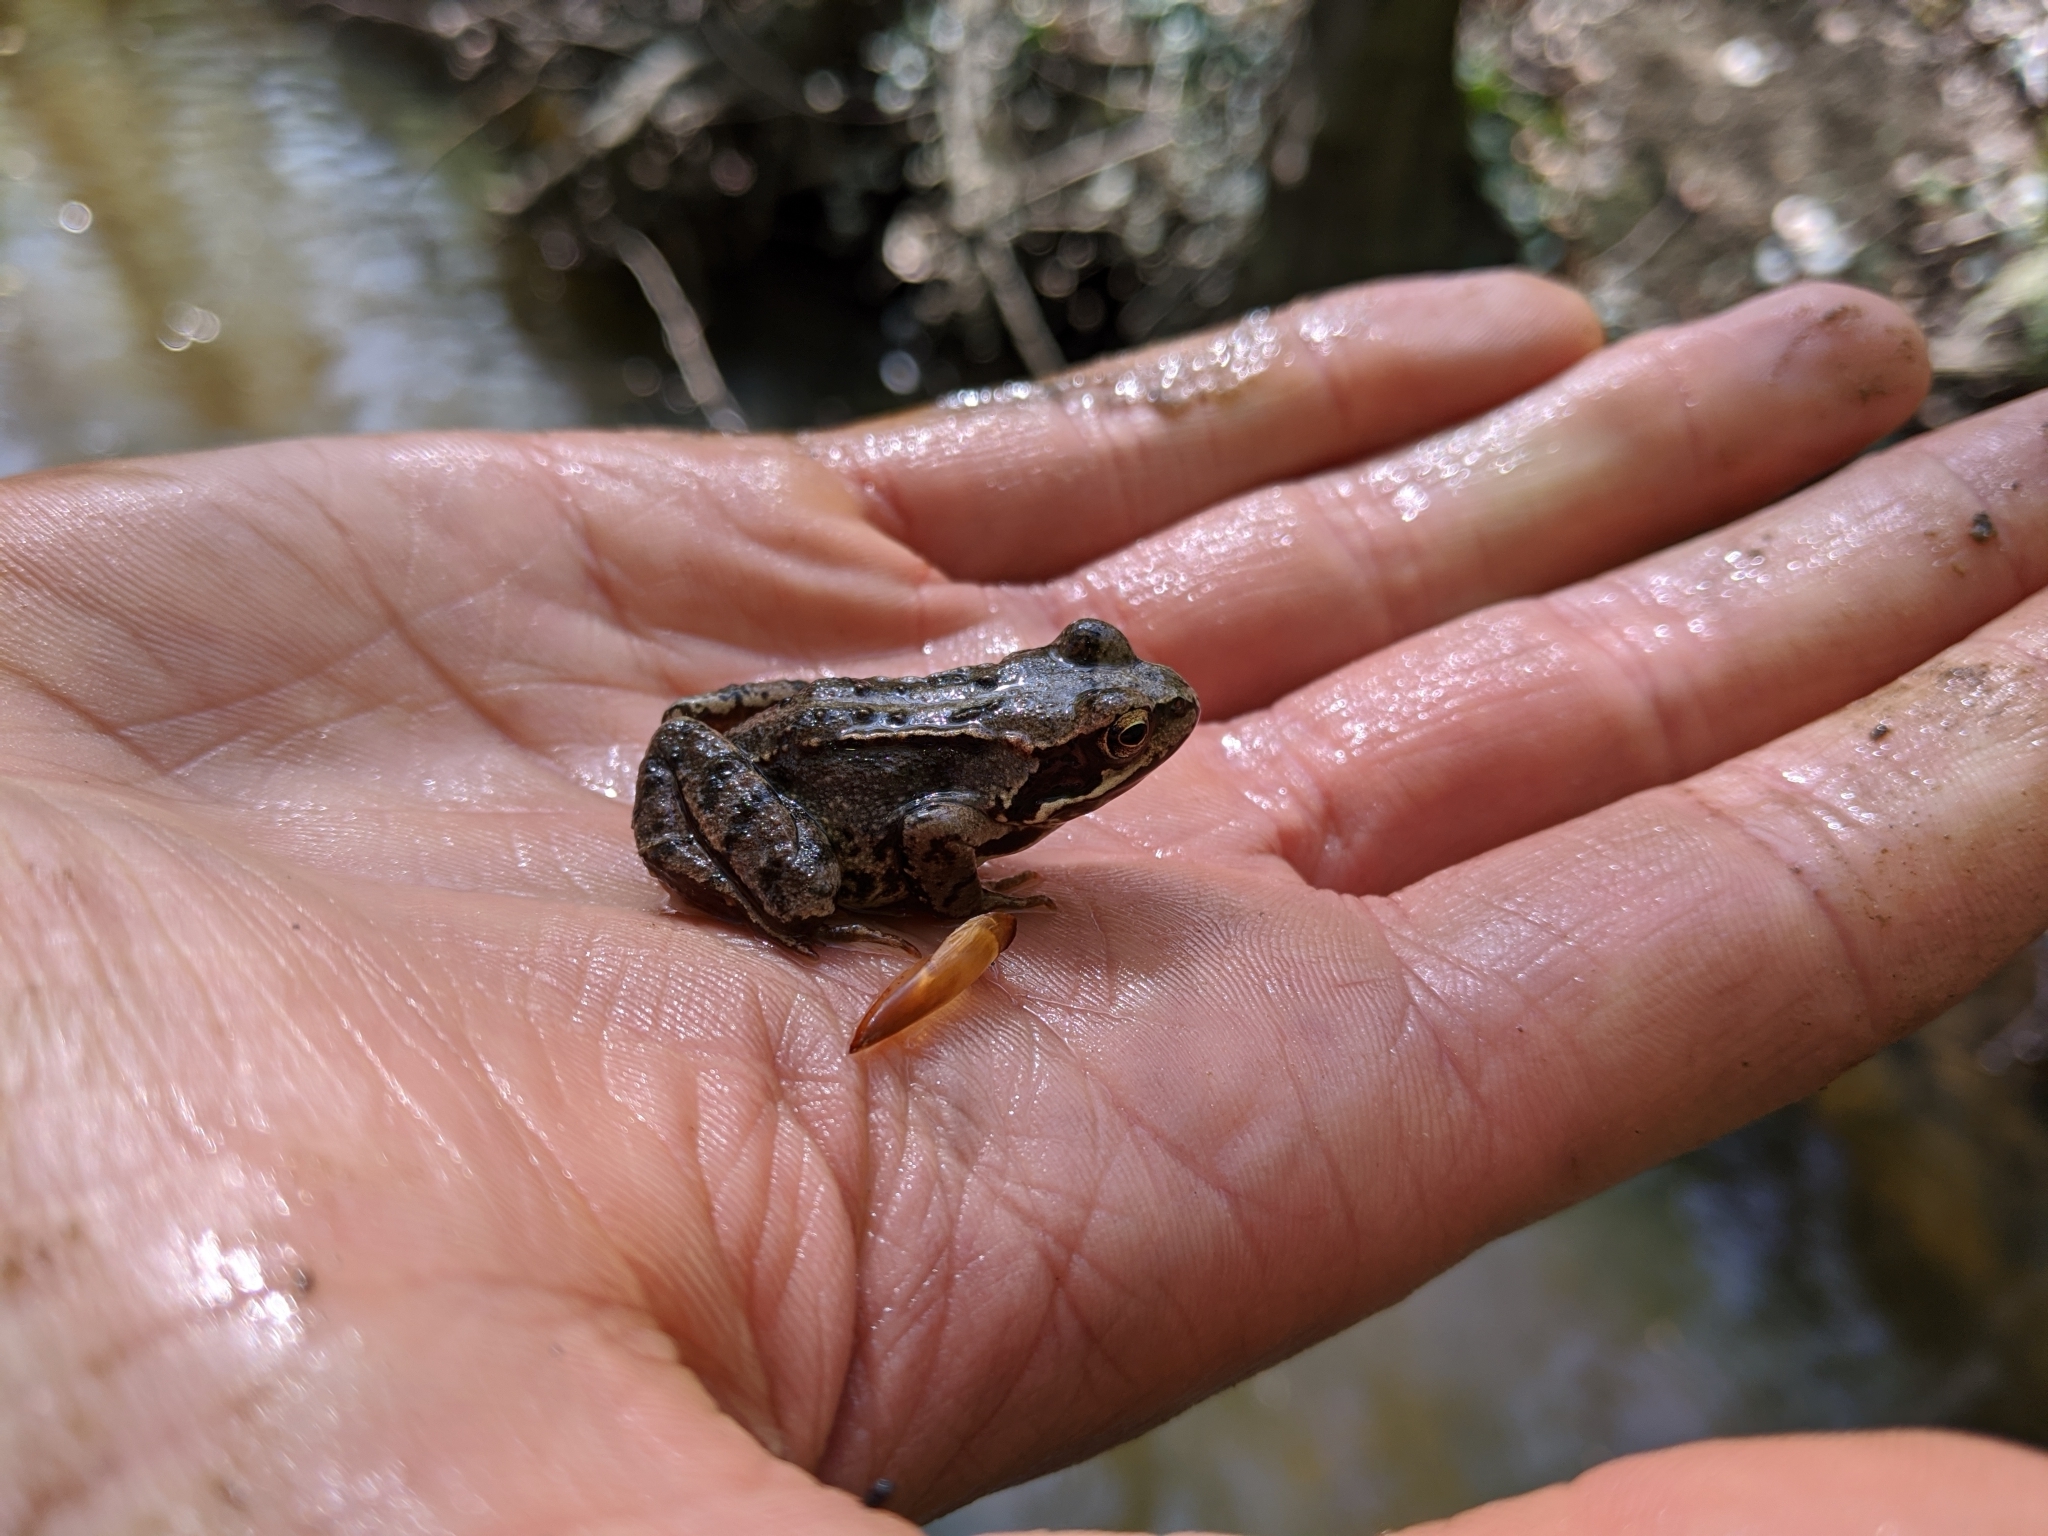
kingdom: Animalia
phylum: Chordata
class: Amphibia
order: Anura
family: Ranidae
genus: Rana
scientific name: Rana temporaria
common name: Common frog
